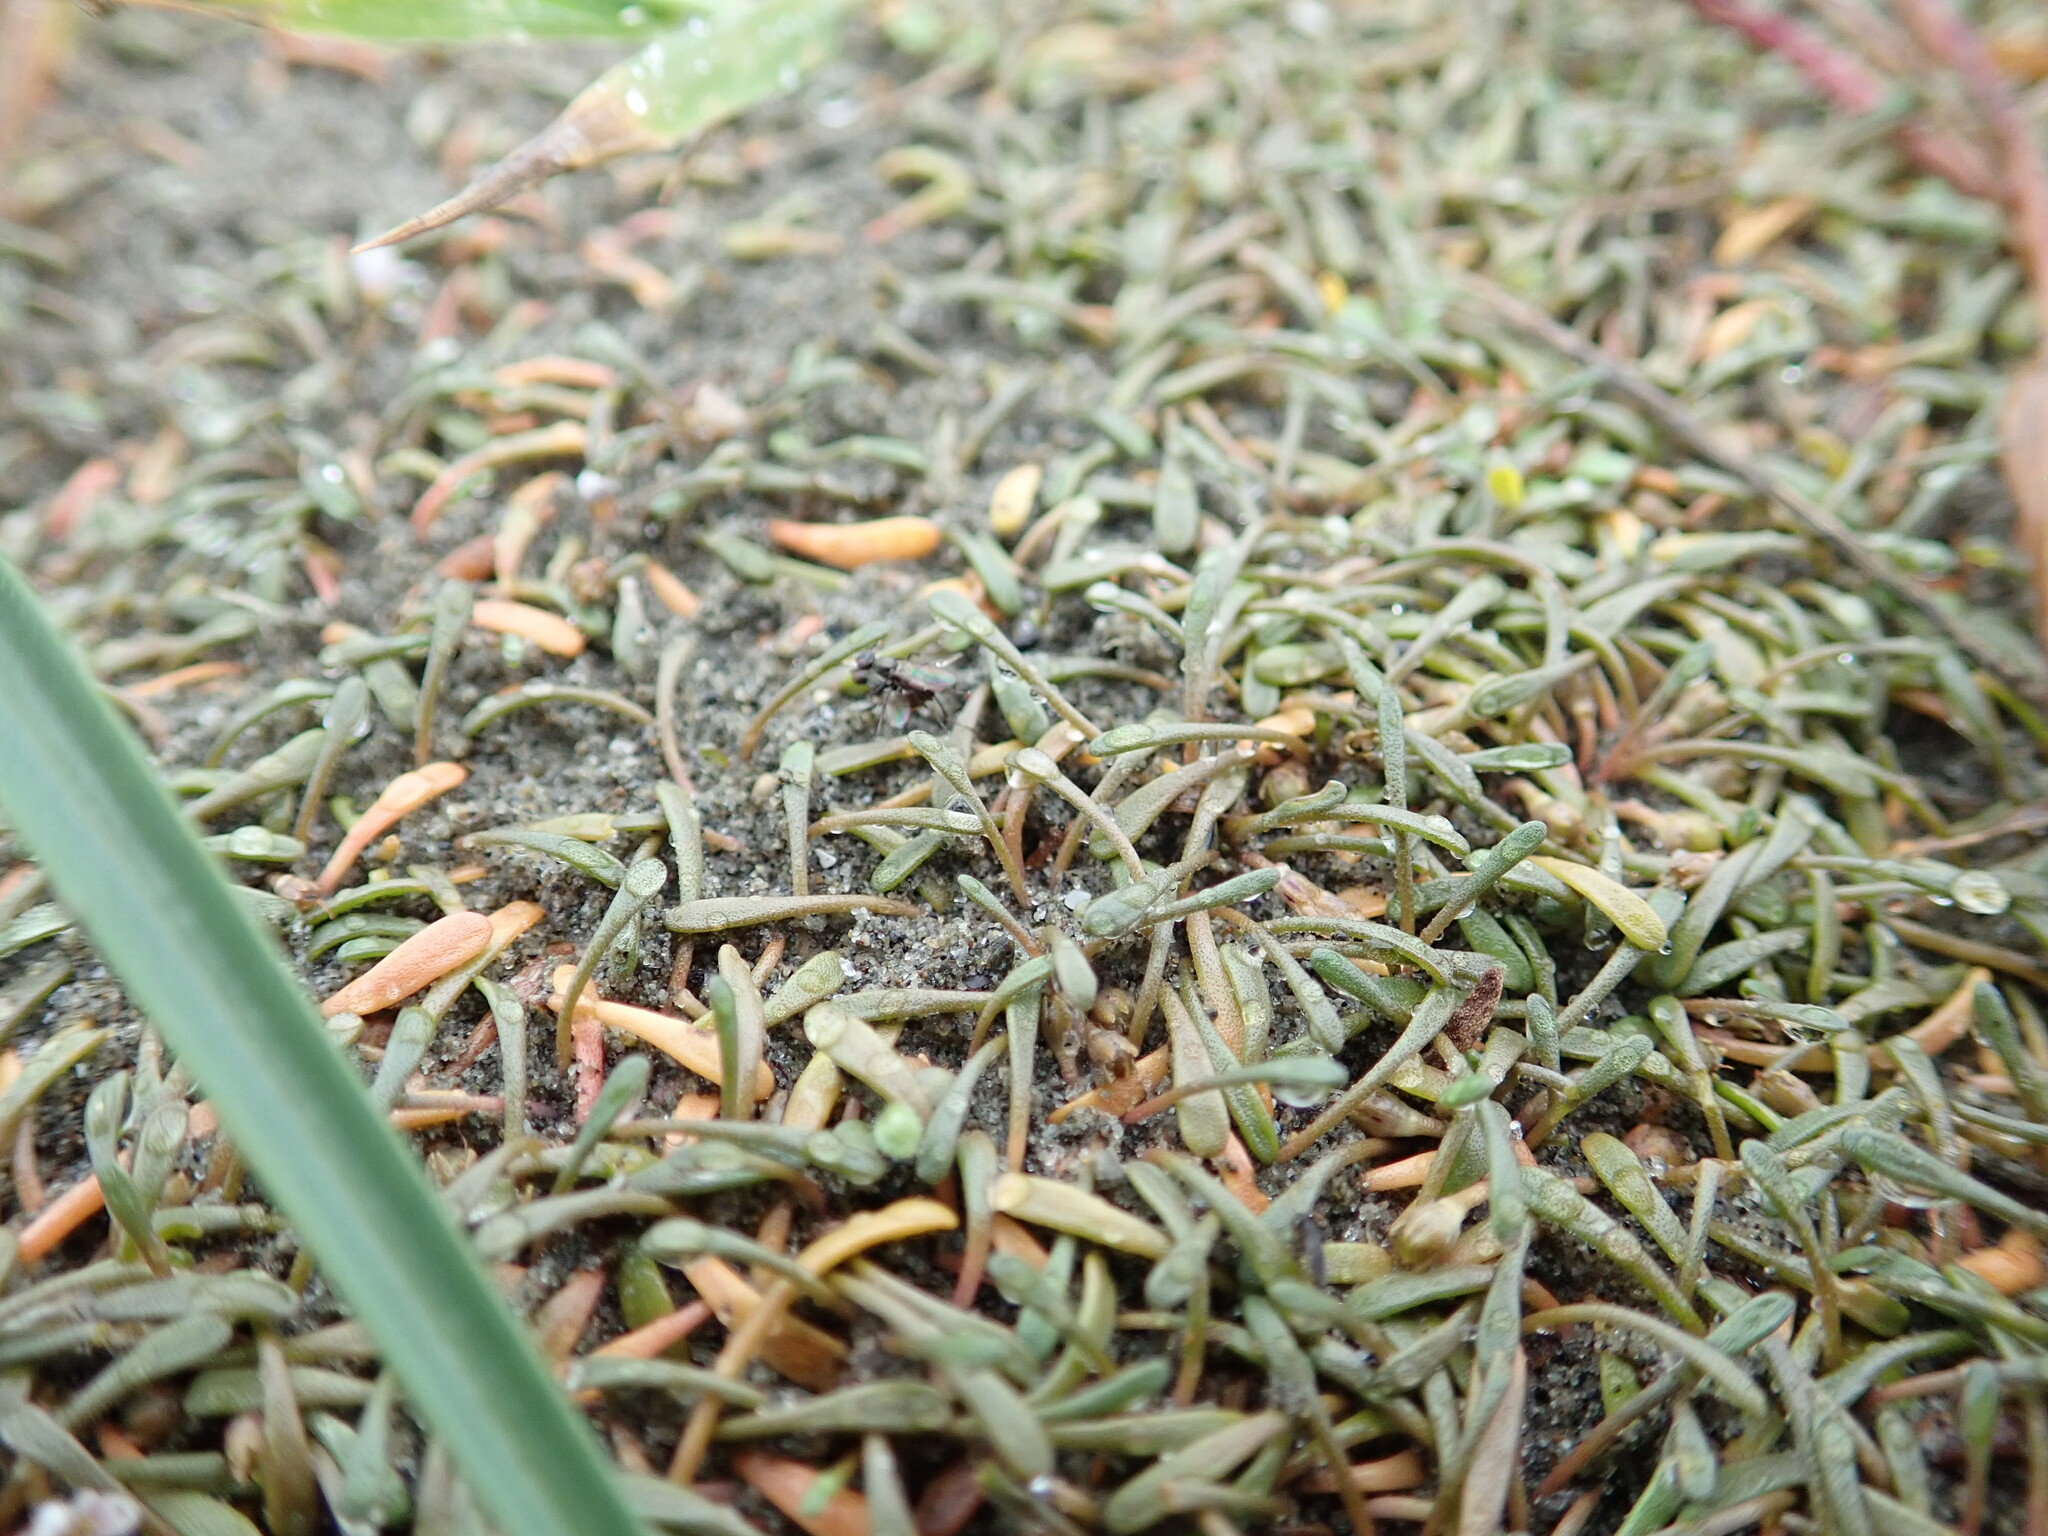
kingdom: Plantae
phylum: Tracheophyta
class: Magnoliopsida
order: Lamiales
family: Scrophulariaceae
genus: Limosella
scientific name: Limosella australis
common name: Welsh mudwort
